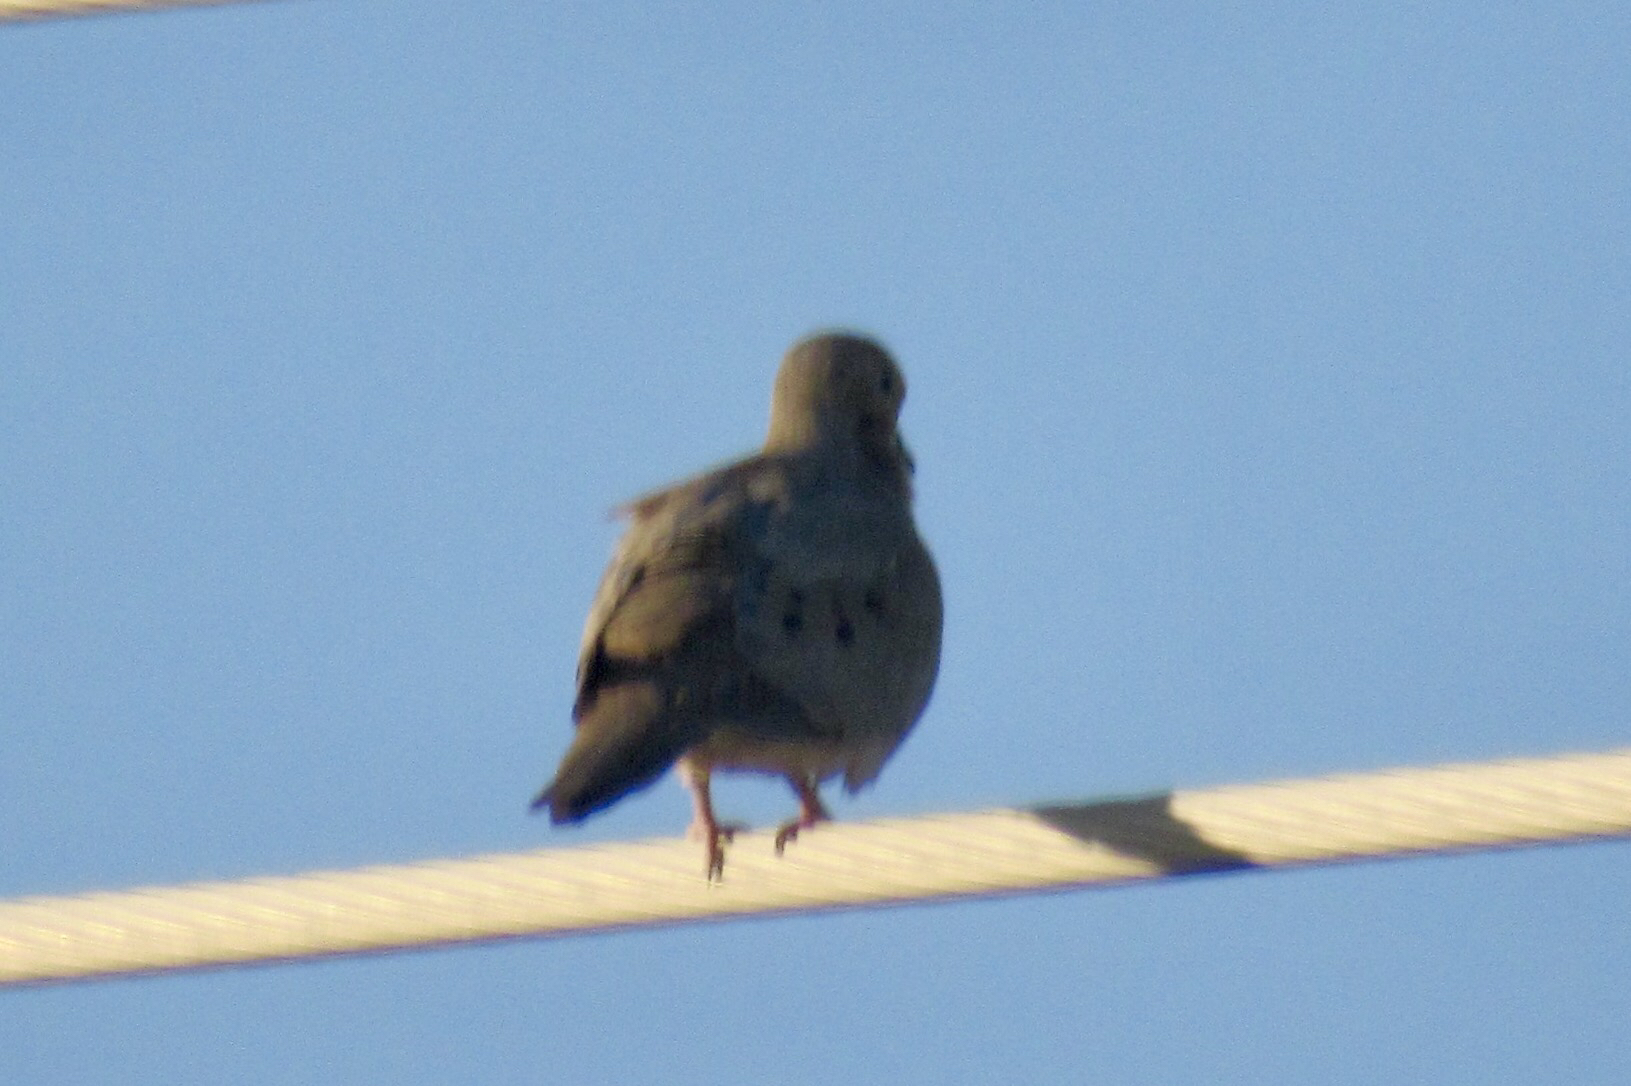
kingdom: Animalia
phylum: Chordata
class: Aves
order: Columbiformes
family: Columbidae
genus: Zenaida
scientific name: Zenaida macroura
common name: Mourning dove
